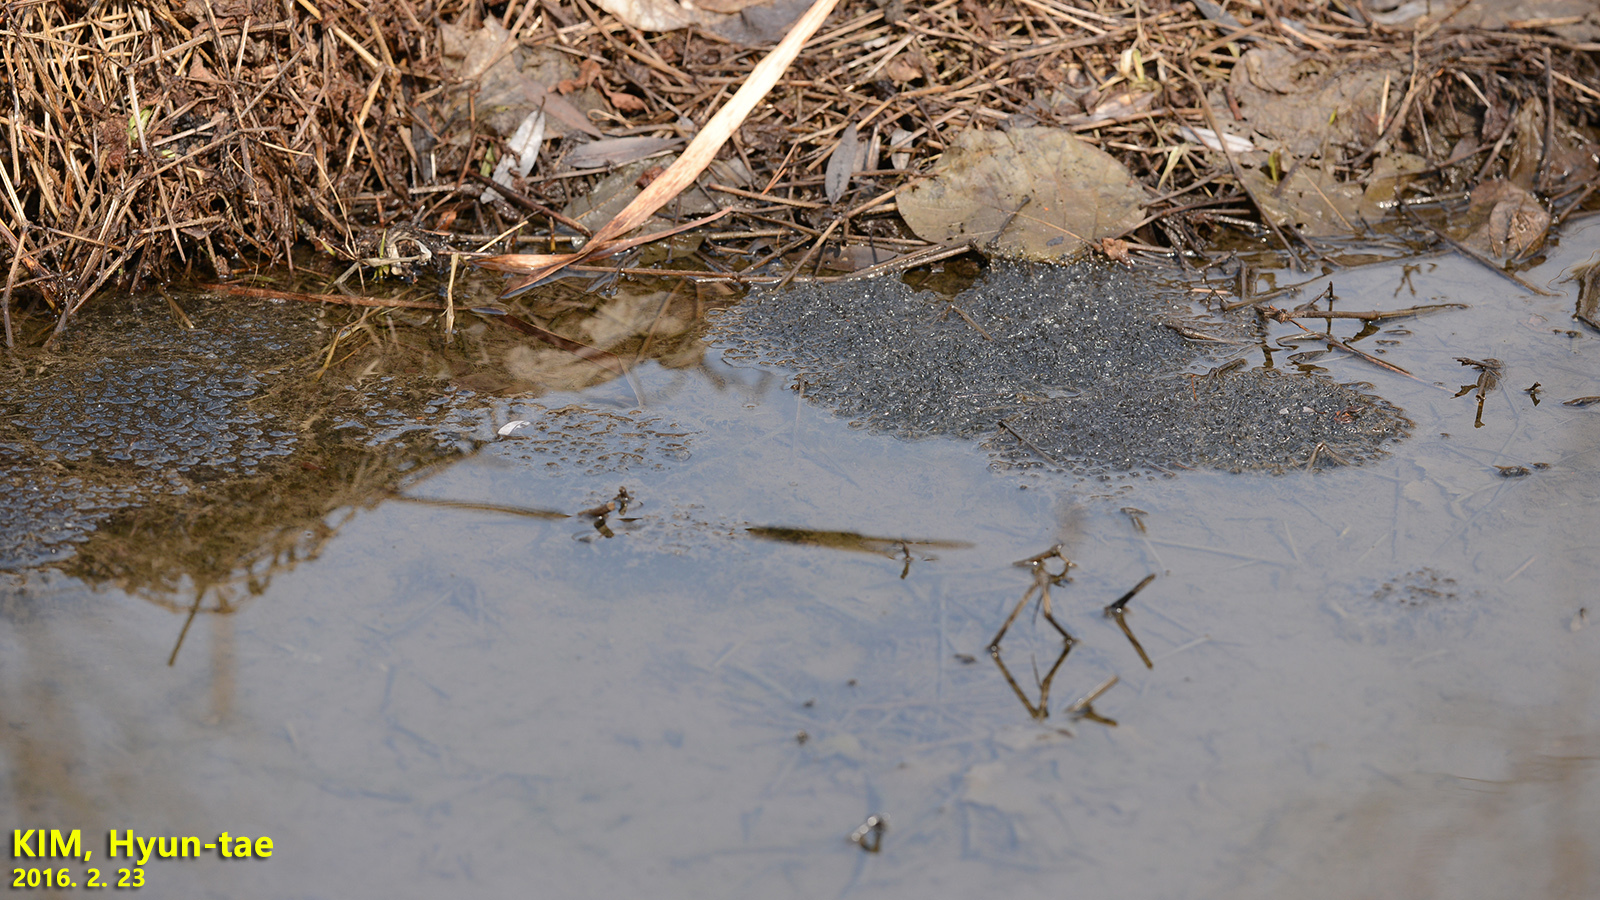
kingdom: Animalia
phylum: Chordata
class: Amphibia
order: Anura
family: Ranidae
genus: Rana
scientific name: Rana uenoi
